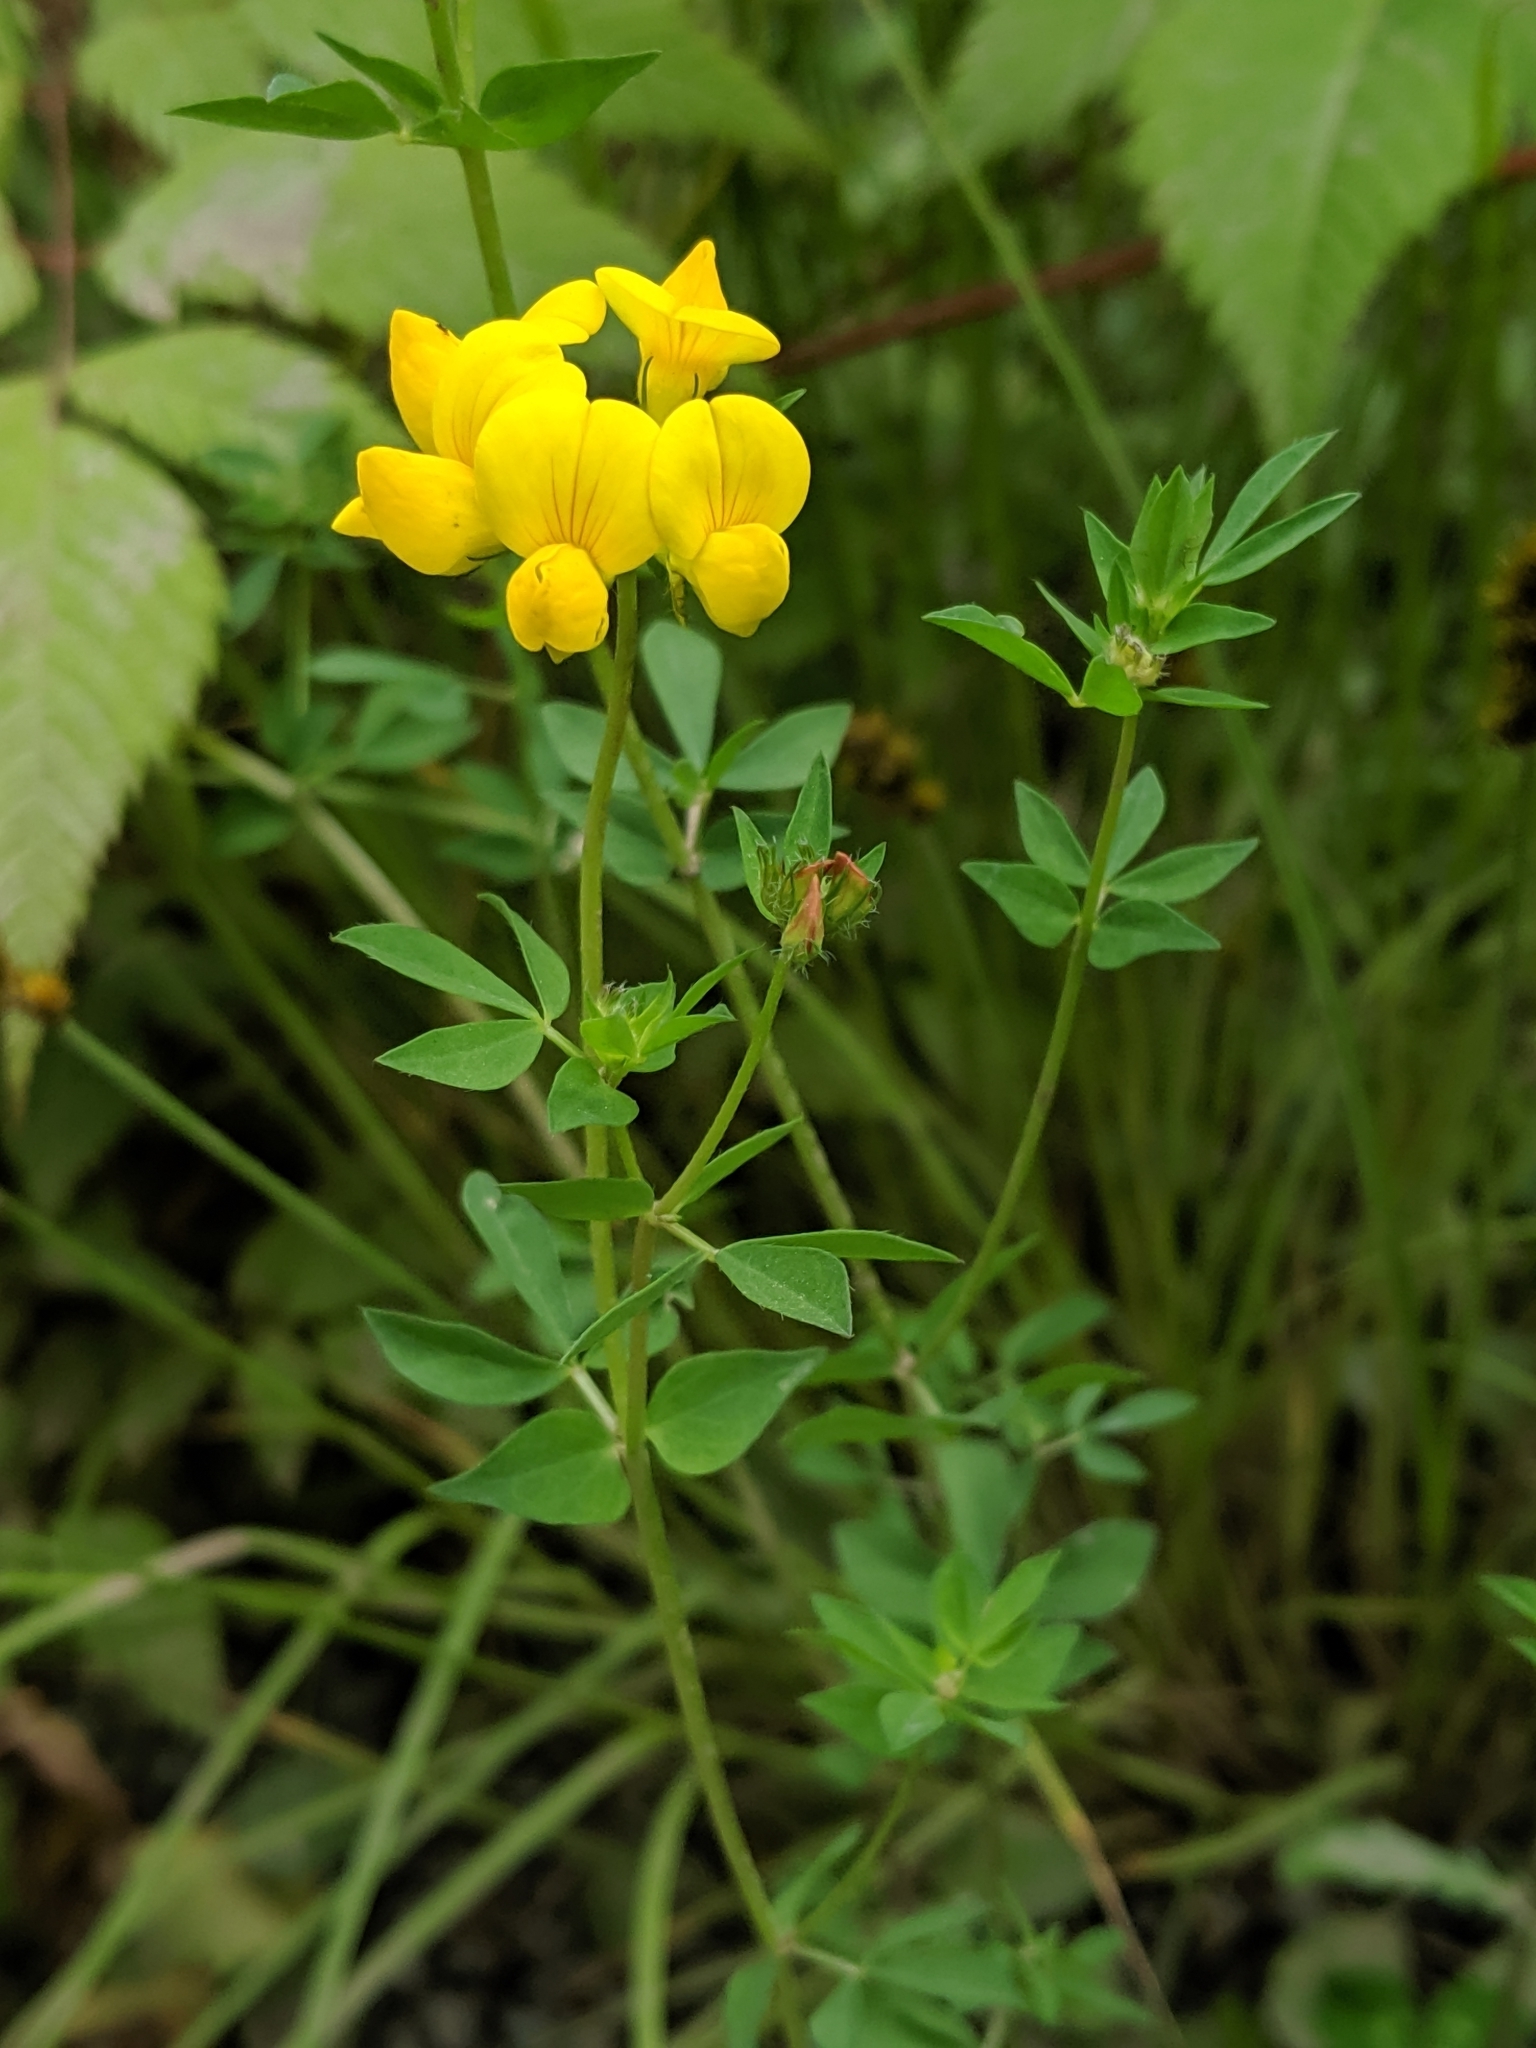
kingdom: Plantae
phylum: Tracheophyta
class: Magnoliopsida
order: Fabales
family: Fabaceae
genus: Lotus
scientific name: Lotus corniculatus
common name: Common bird's-foot-trefoil
